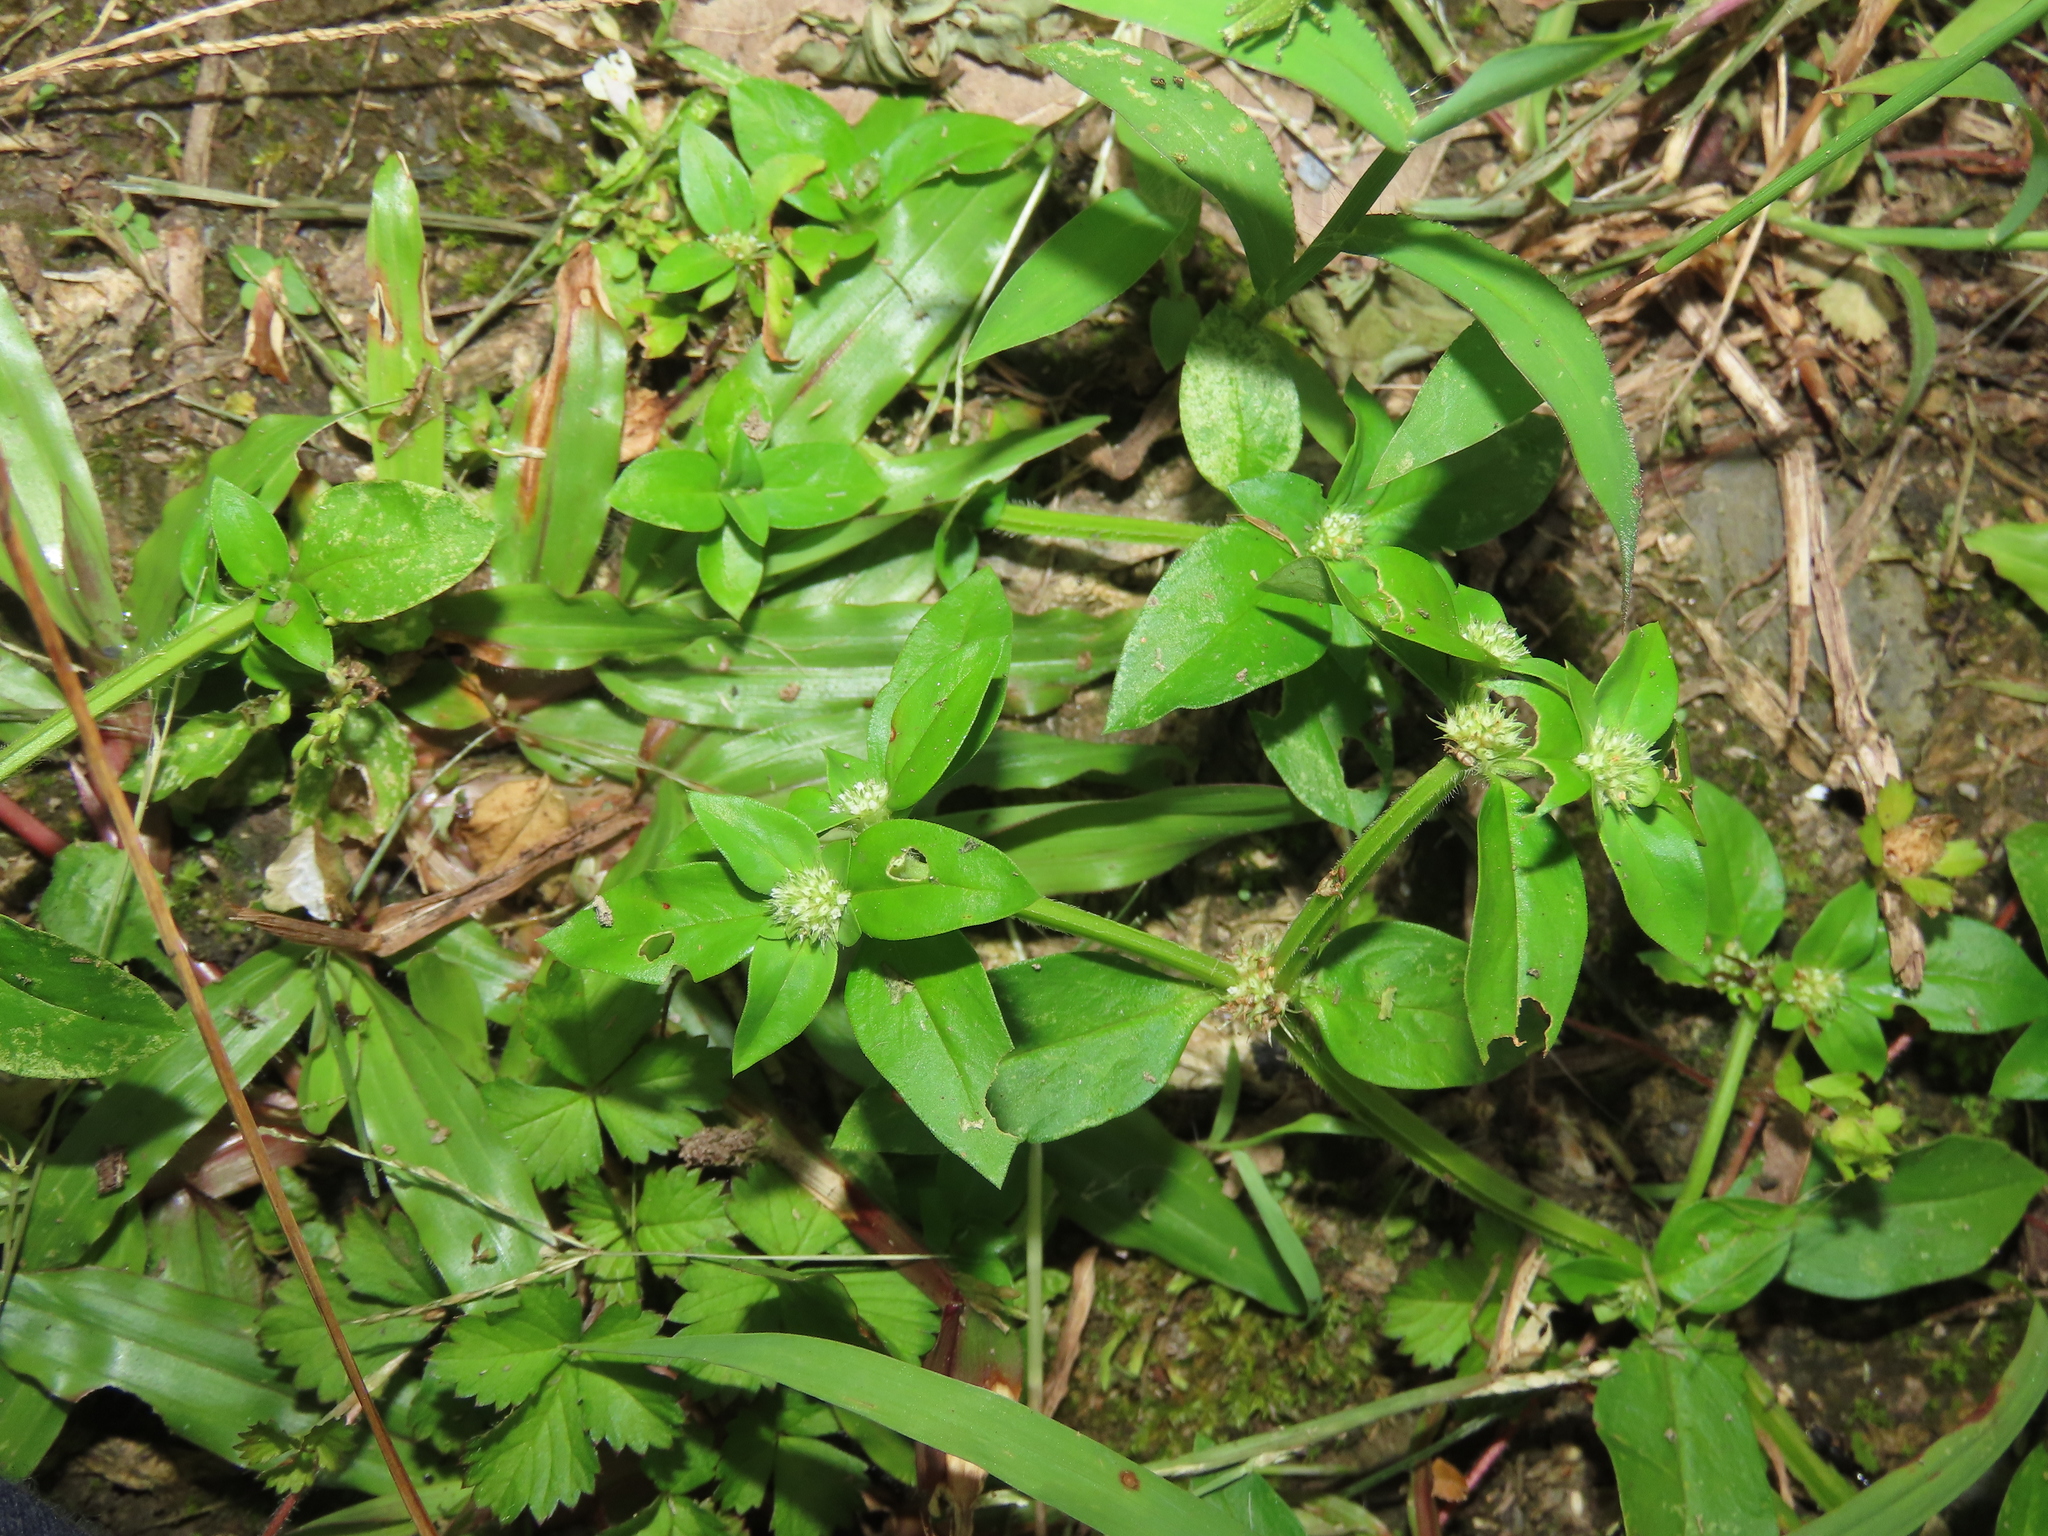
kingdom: Plantae
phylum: Tracheophyta
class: Magnoliopsida
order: Gentianales
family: Rubiaceae
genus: Spermacoce
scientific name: Spermacoce exilis
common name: Pacific false buttonweed
